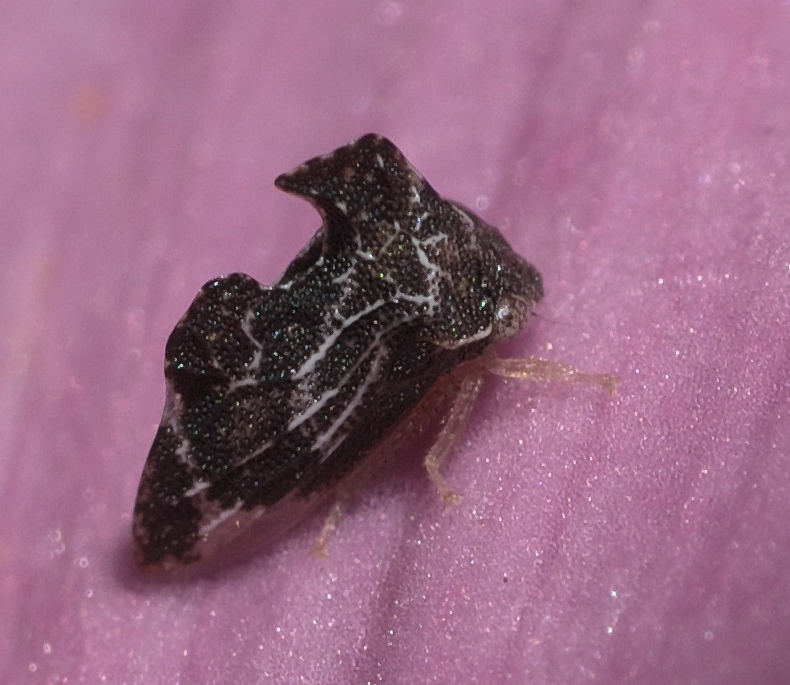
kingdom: Animalia
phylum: Arthropoda
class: Insecta
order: Hemiptera
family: Membracidae
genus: Entylia
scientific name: Entylia carinata
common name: Keeled treehopper
